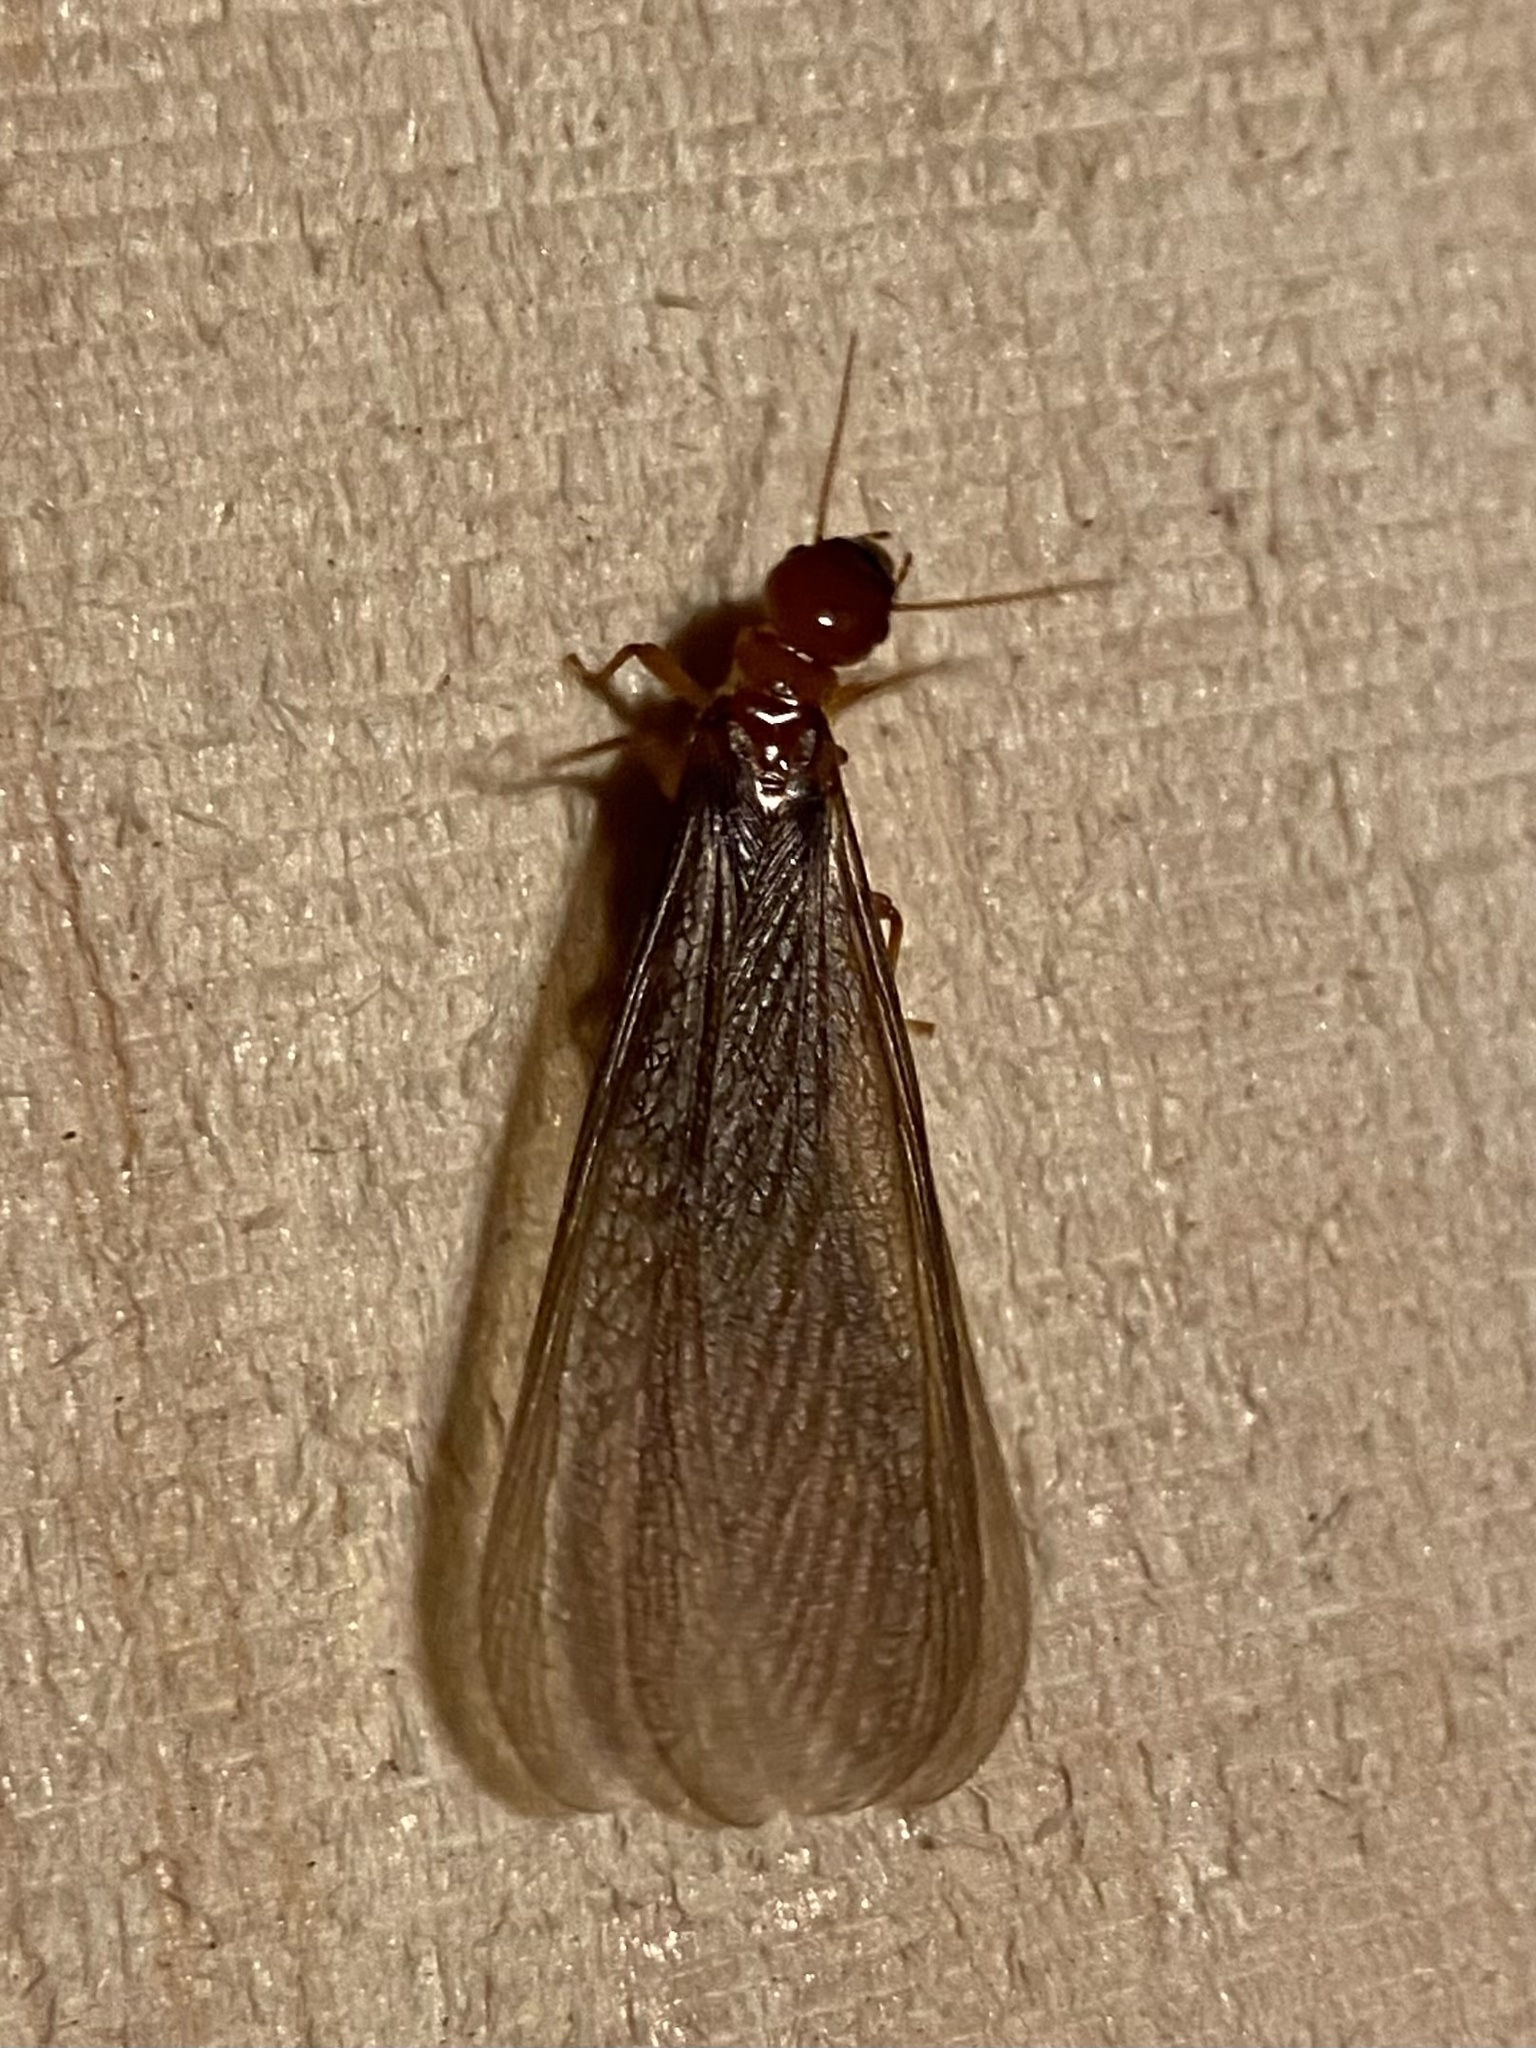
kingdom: Animalia
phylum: Arthropoda
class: Insecta
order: Blattodea
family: Archotermopsidae
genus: Zootermopsis
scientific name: Zootermopsis angusticollis
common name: Rottenwood termite
